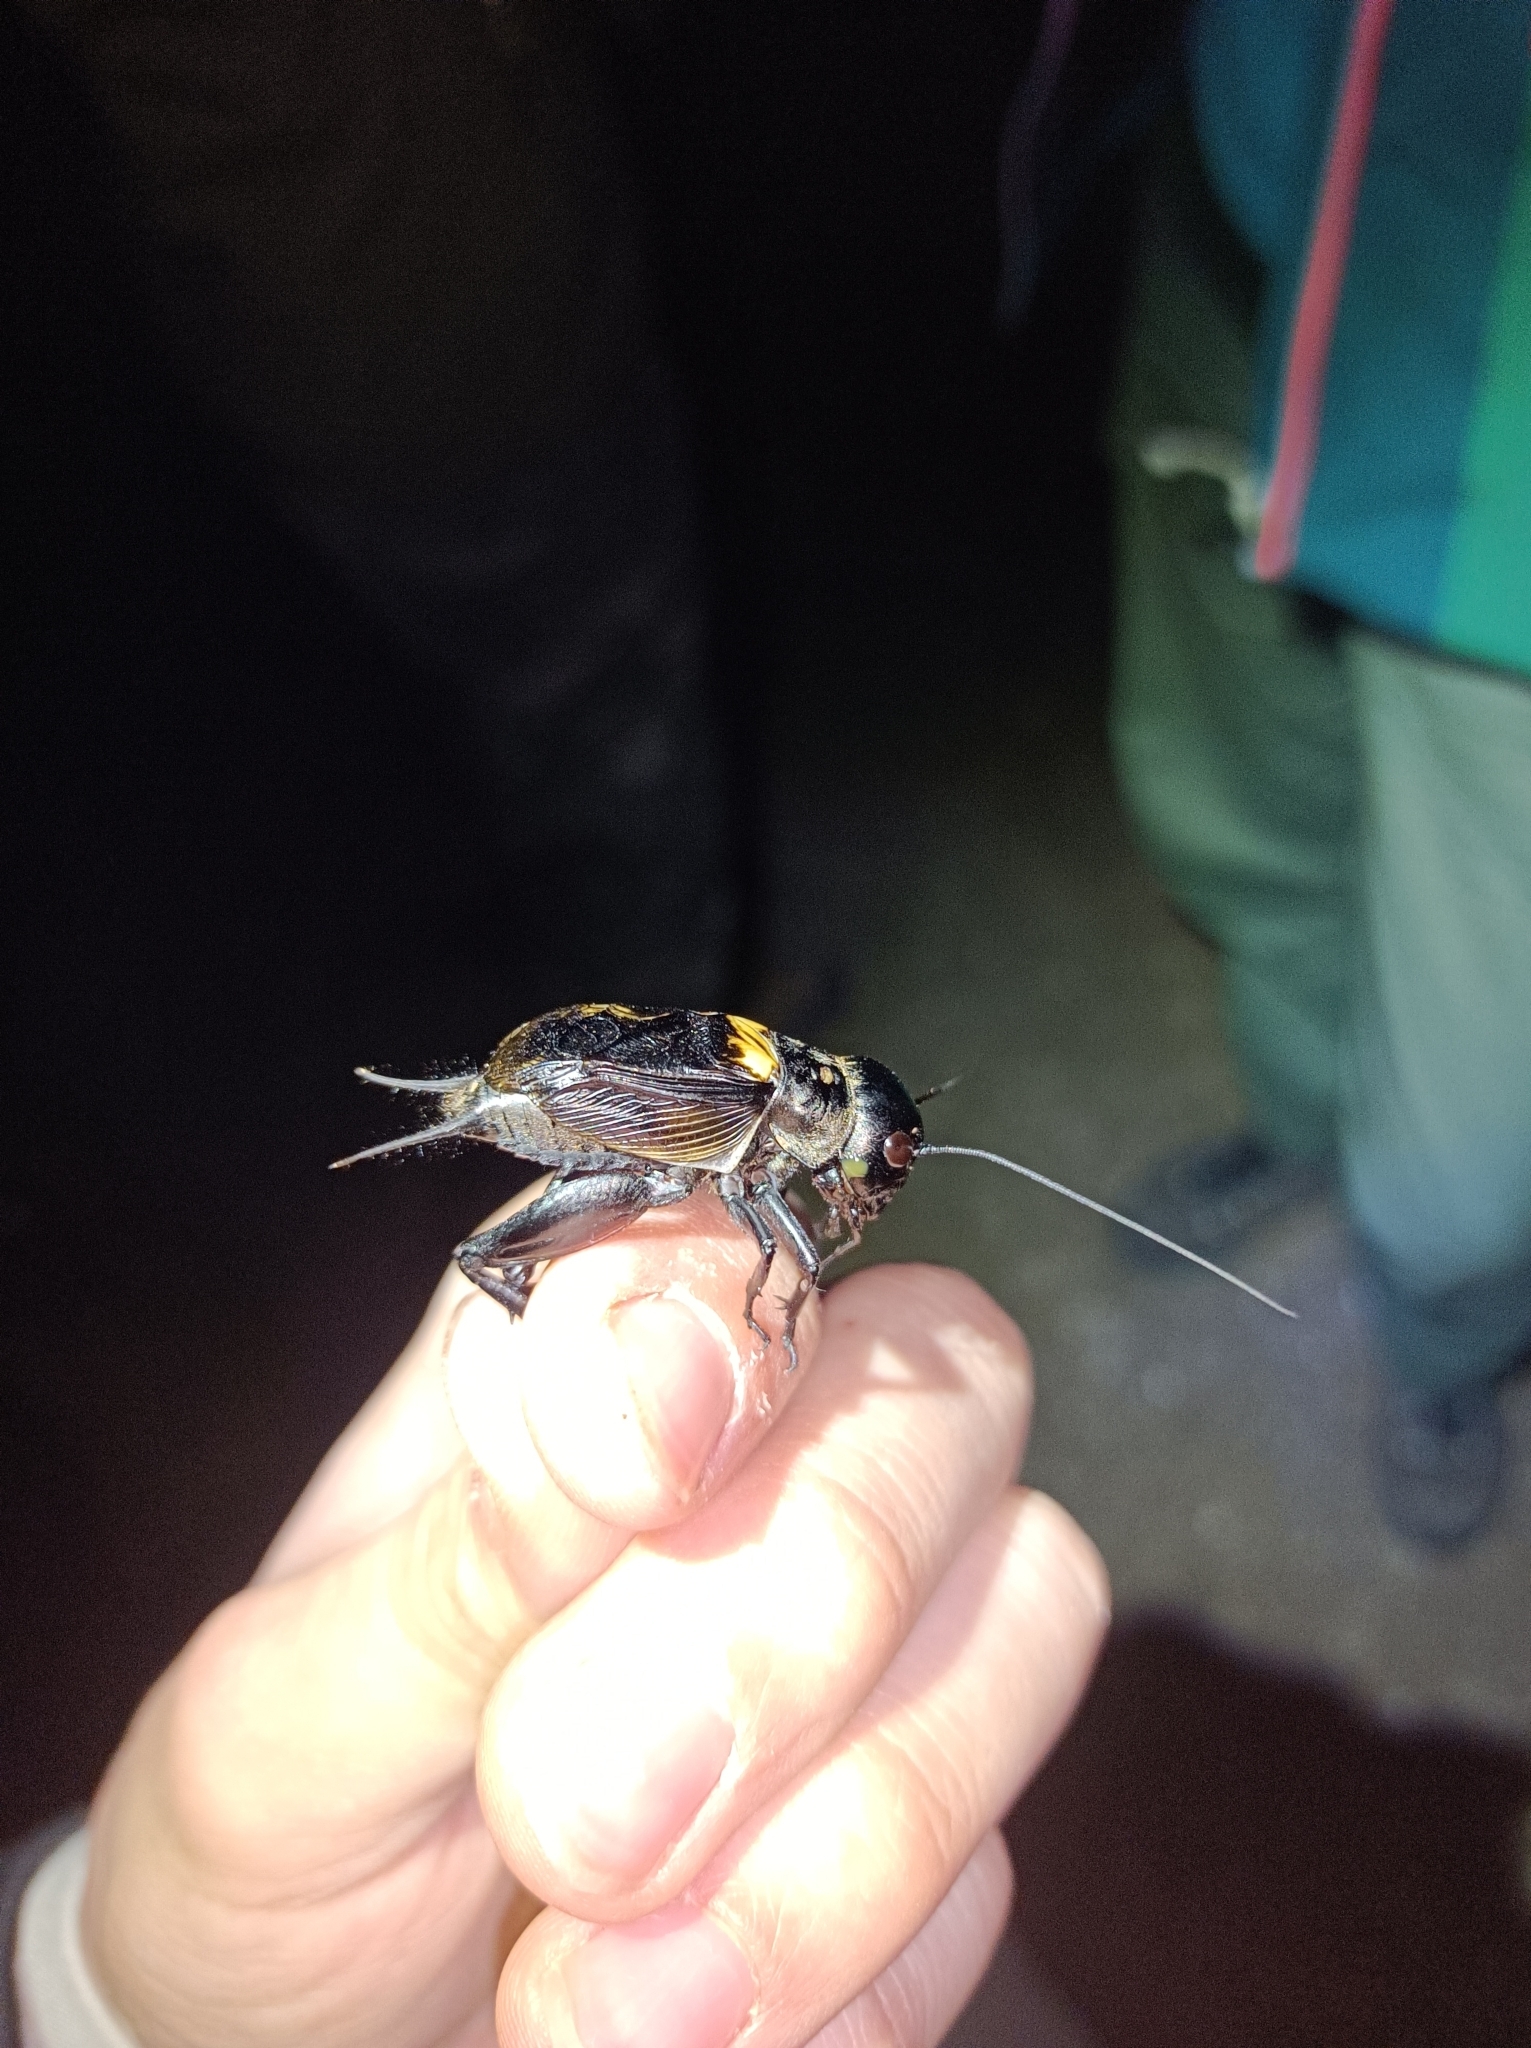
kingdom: Animalia
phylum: Arthropoda
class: Insecta
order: Orthoptera
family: Gryllidae
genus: Gryllus
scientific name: Gryllus campestris
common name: Field cricket
